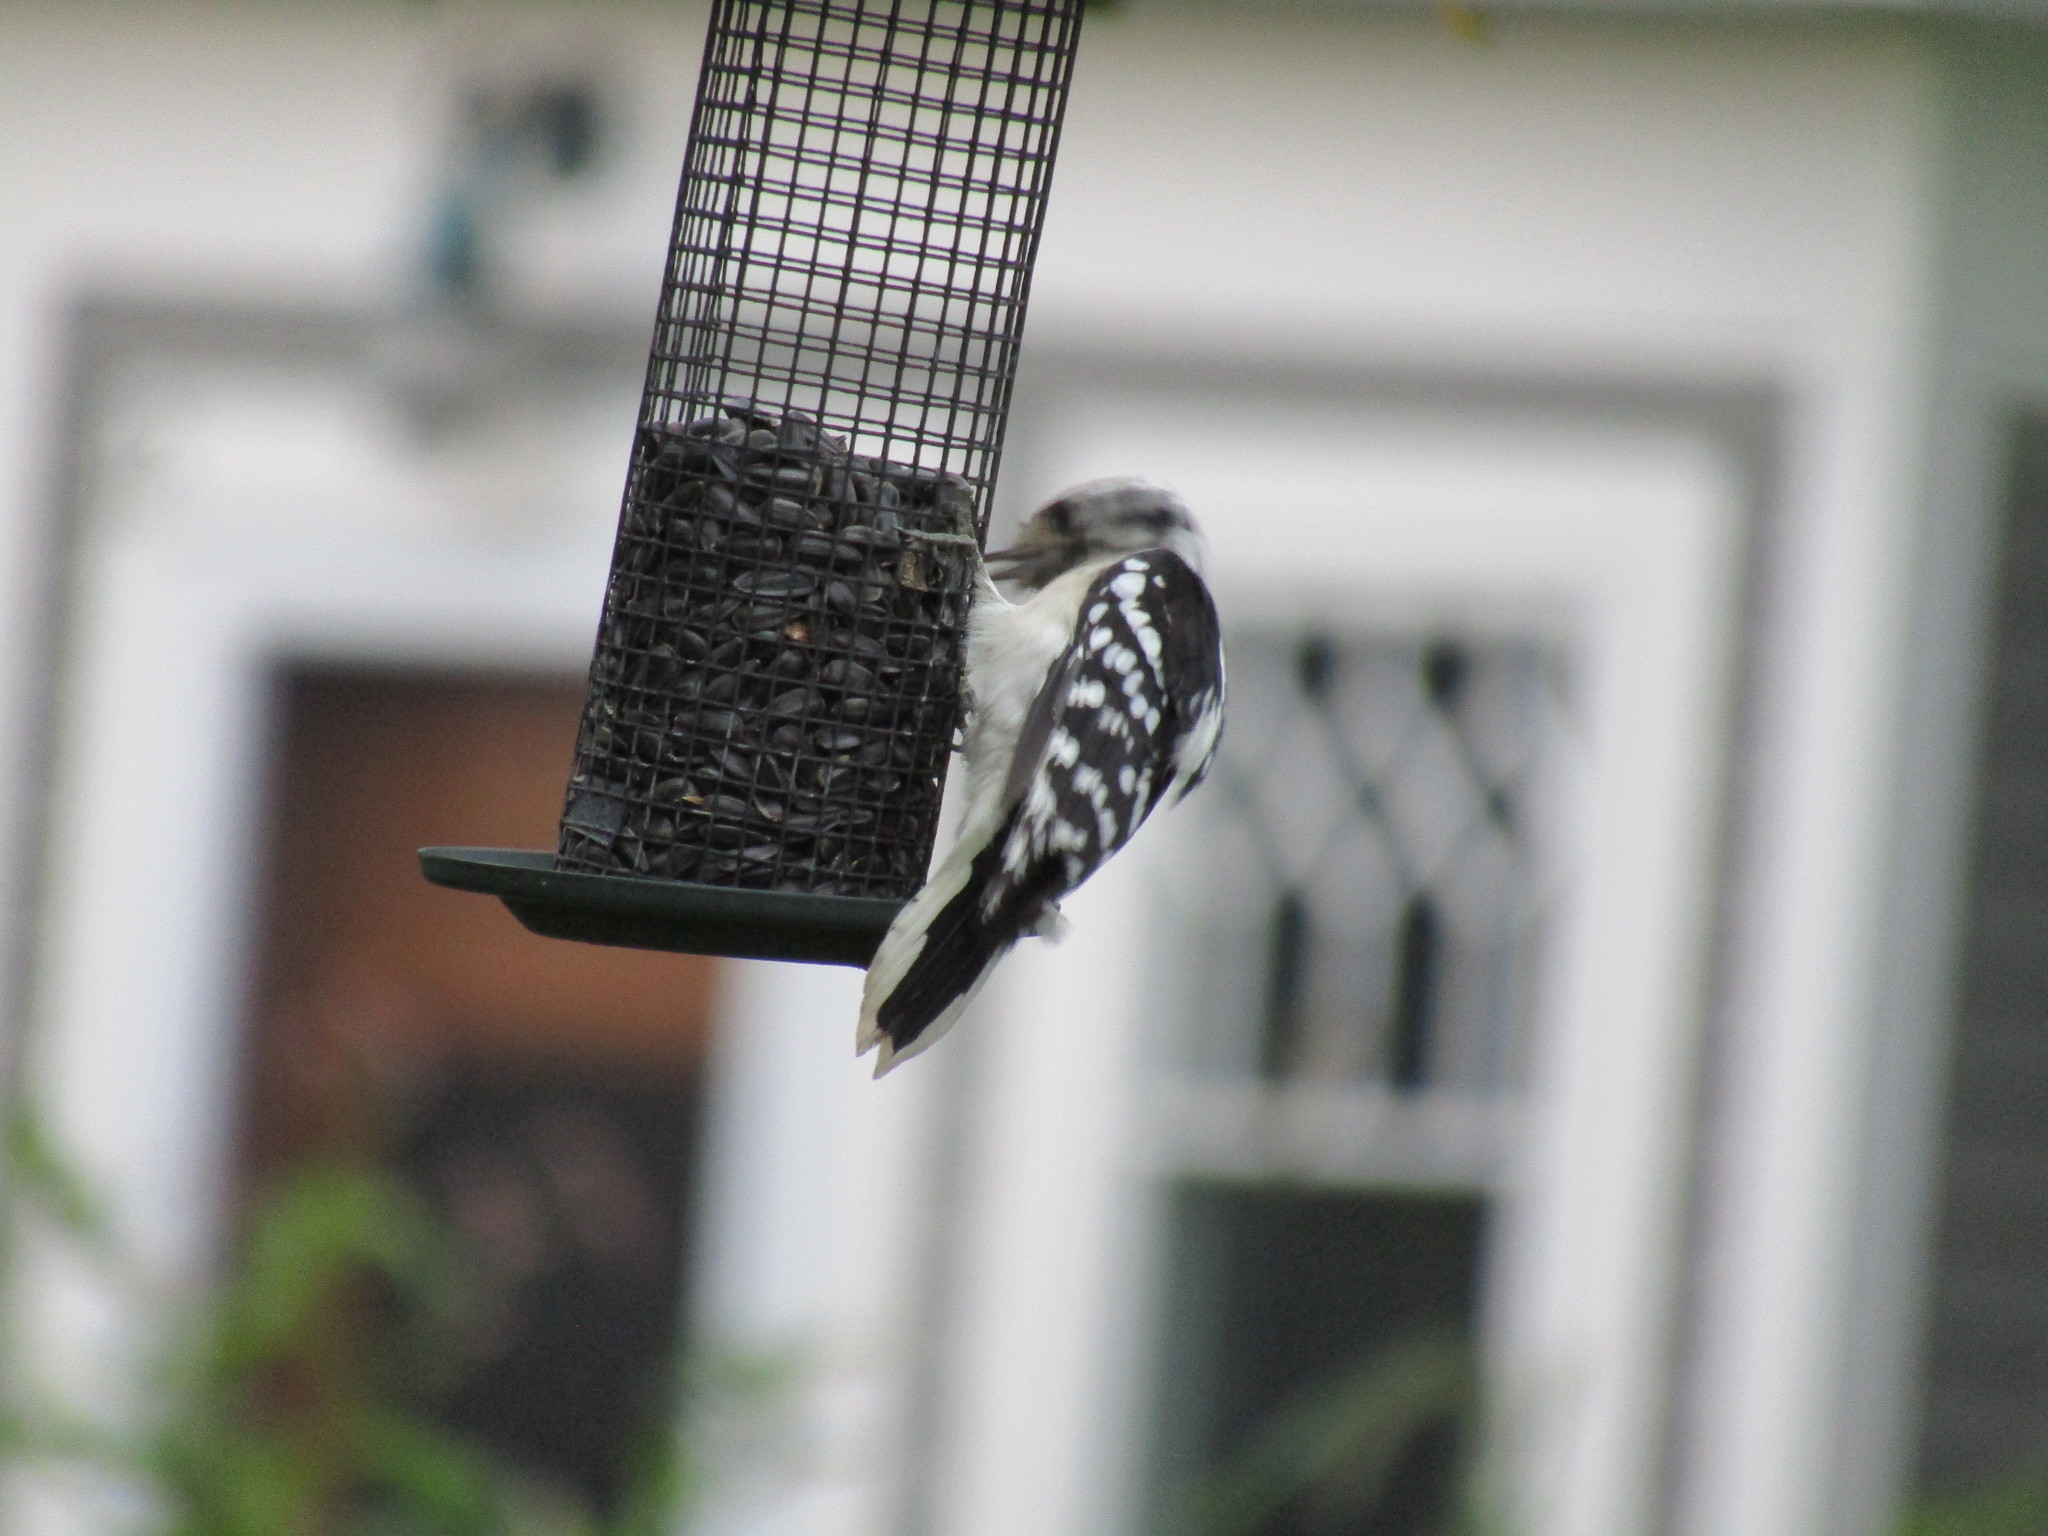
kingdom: Animalia
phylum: Chordata
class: Aves
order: Piciformes
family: Picidae
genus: Dryobates
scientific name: Dryobates pubescens
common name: Downy woodpecker
